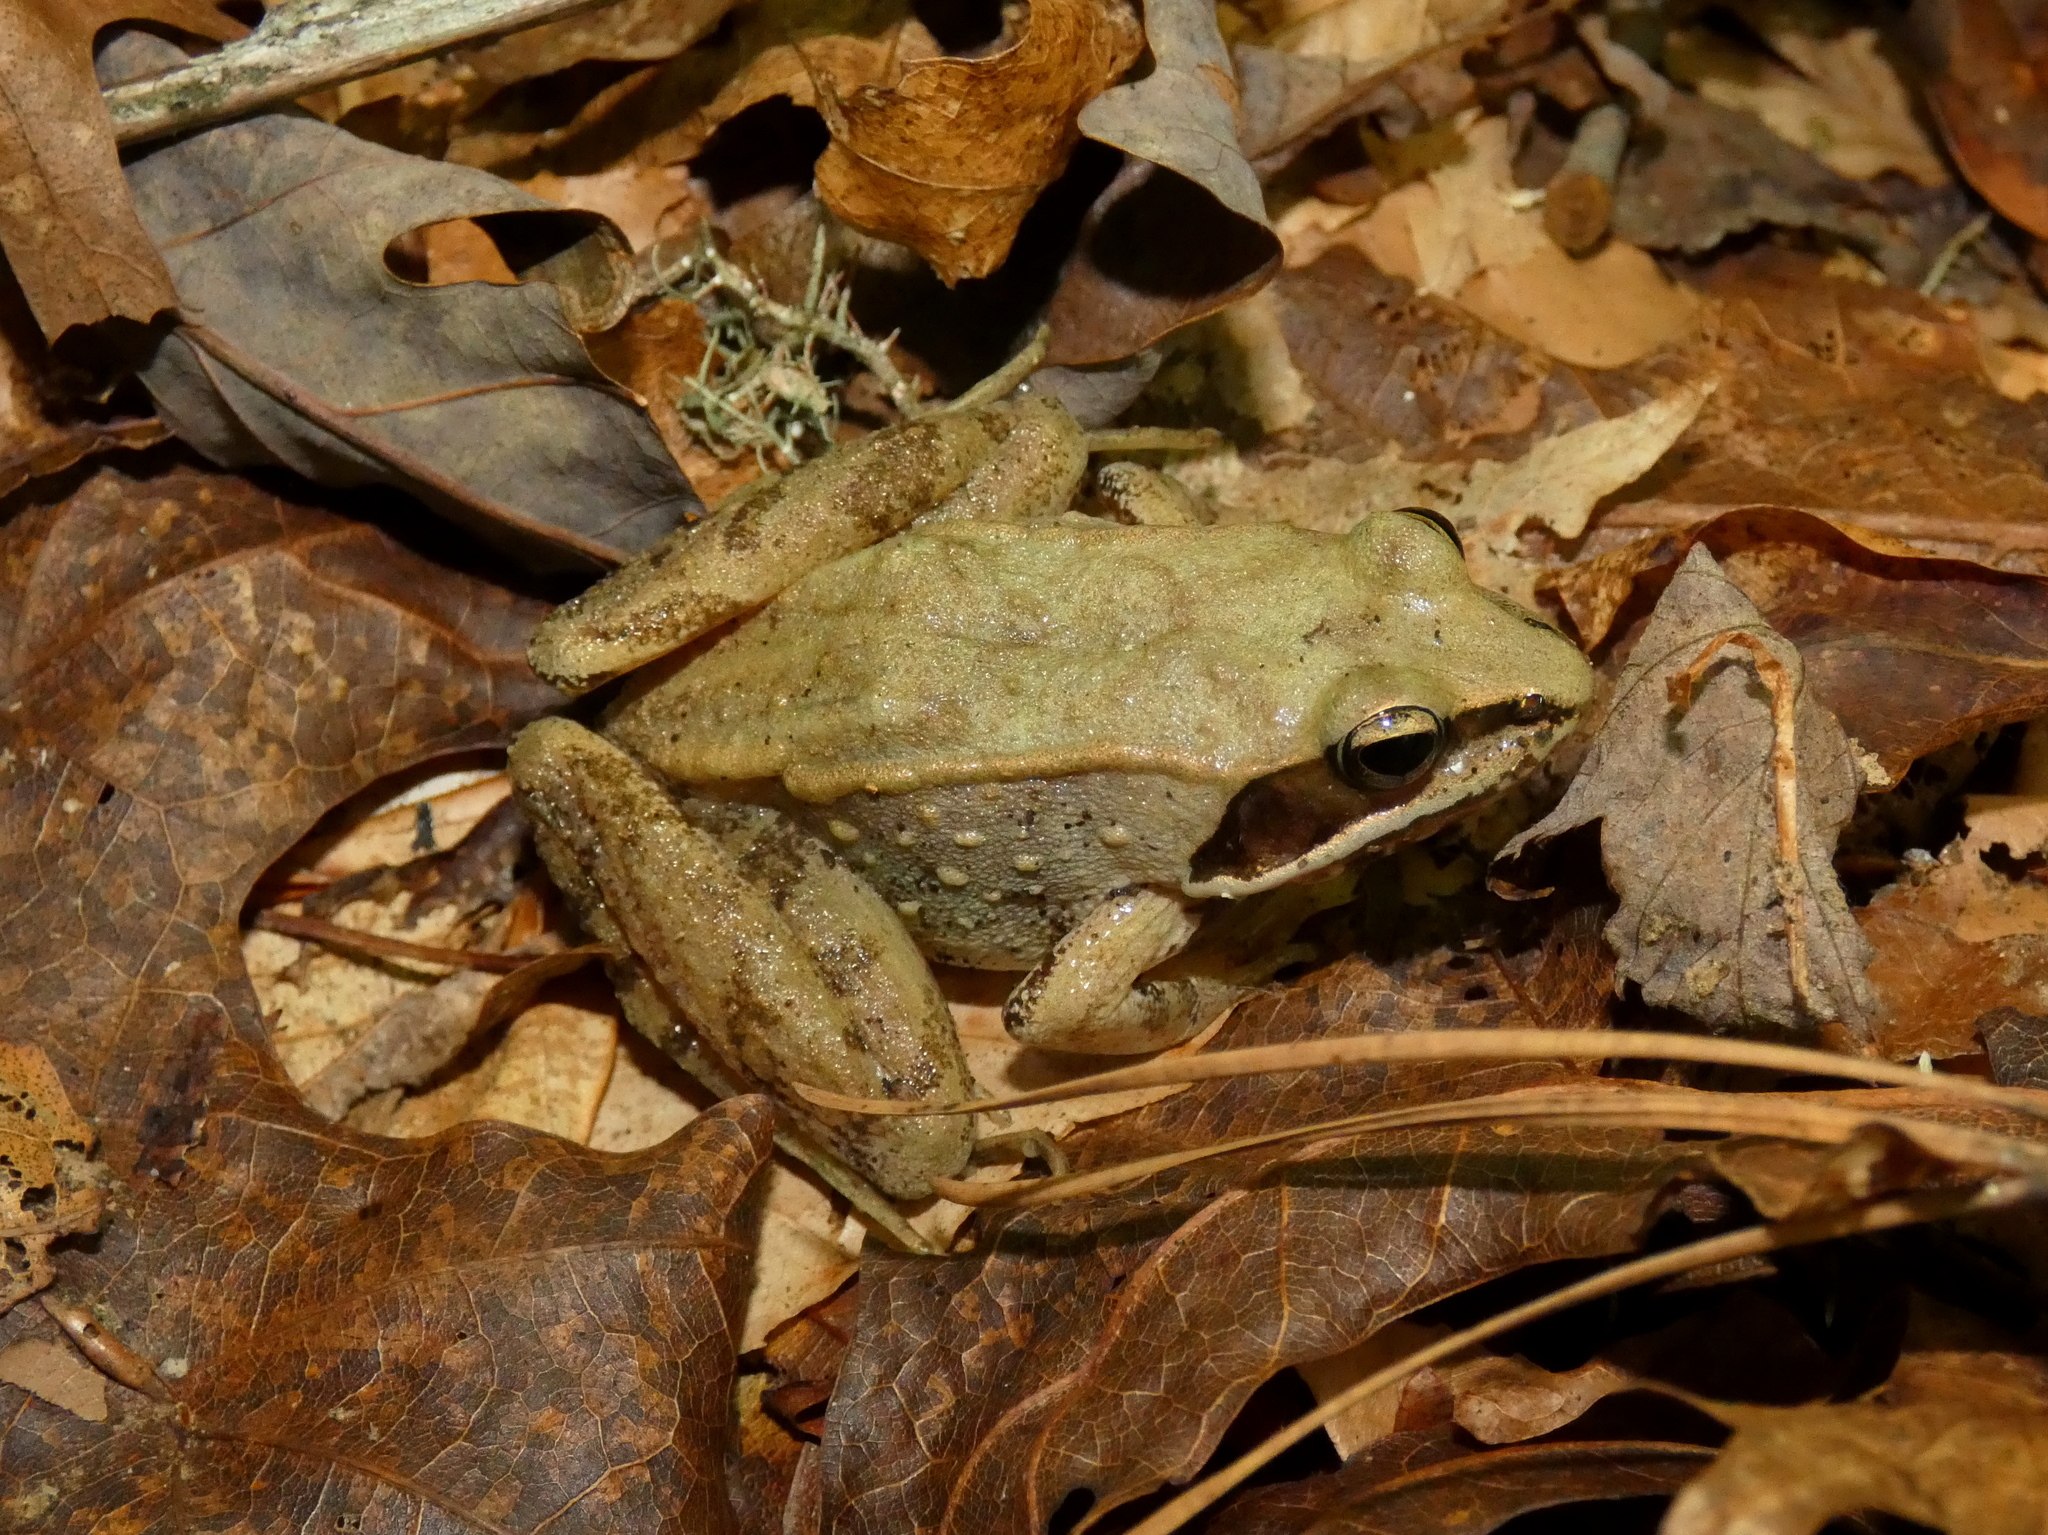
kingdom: Animalia
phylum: Chordata
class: Amphibia
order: Anura
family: Ranidae
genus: Lithobates
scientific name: Lithobates sylvaticus
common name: Wood frog
